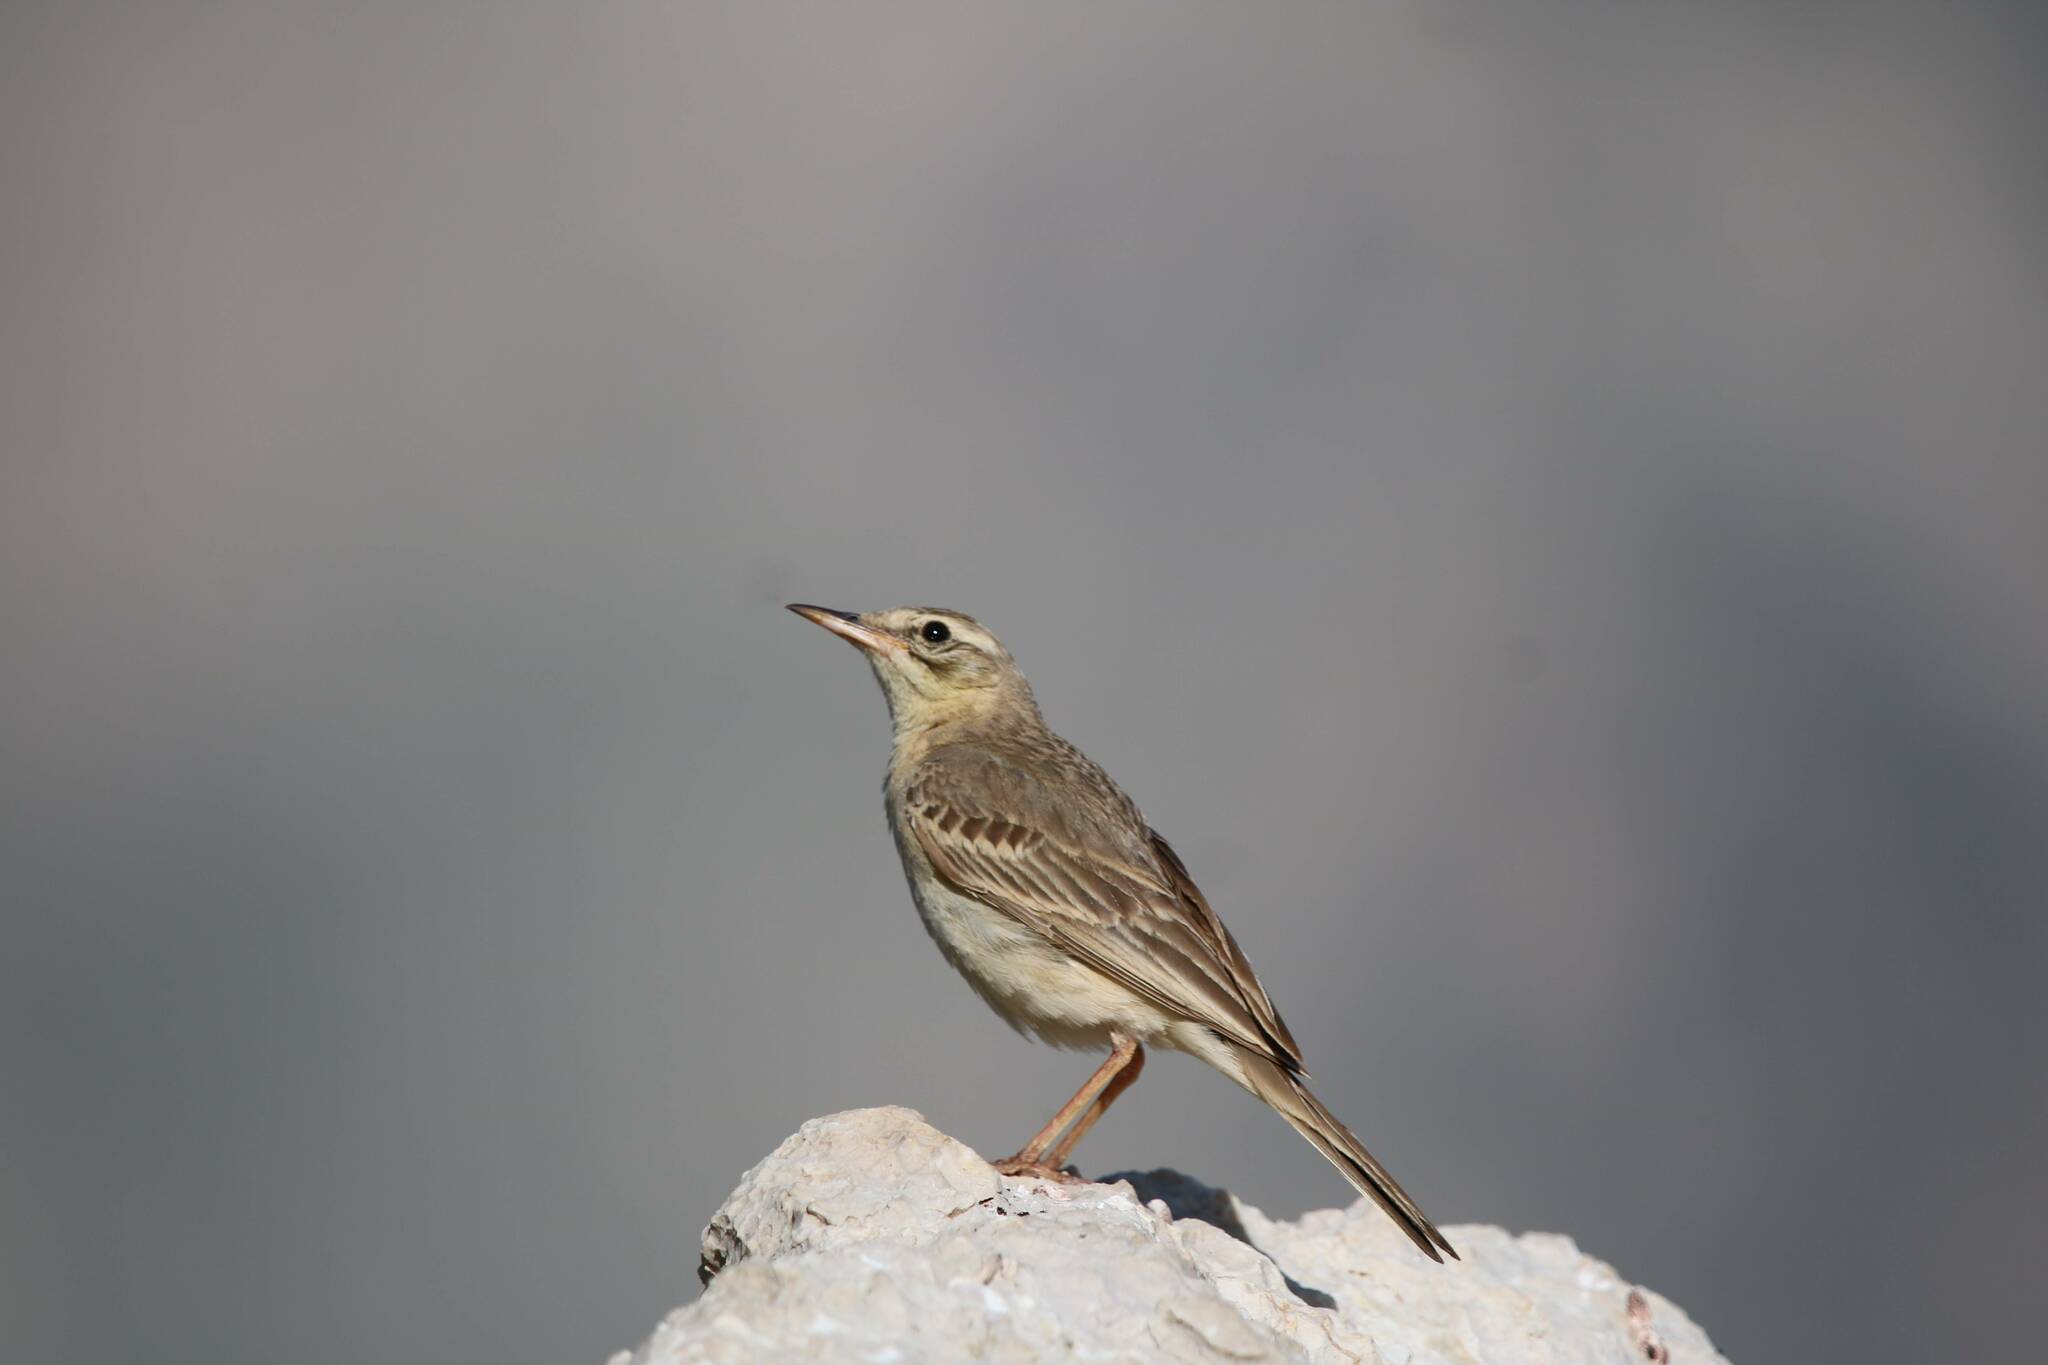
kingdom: Animalia
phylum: Chordata
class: Aves
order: Passeriformes
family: Motacillidae
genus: Anthus
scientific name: Anthus campestris
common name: Tawny pipit
